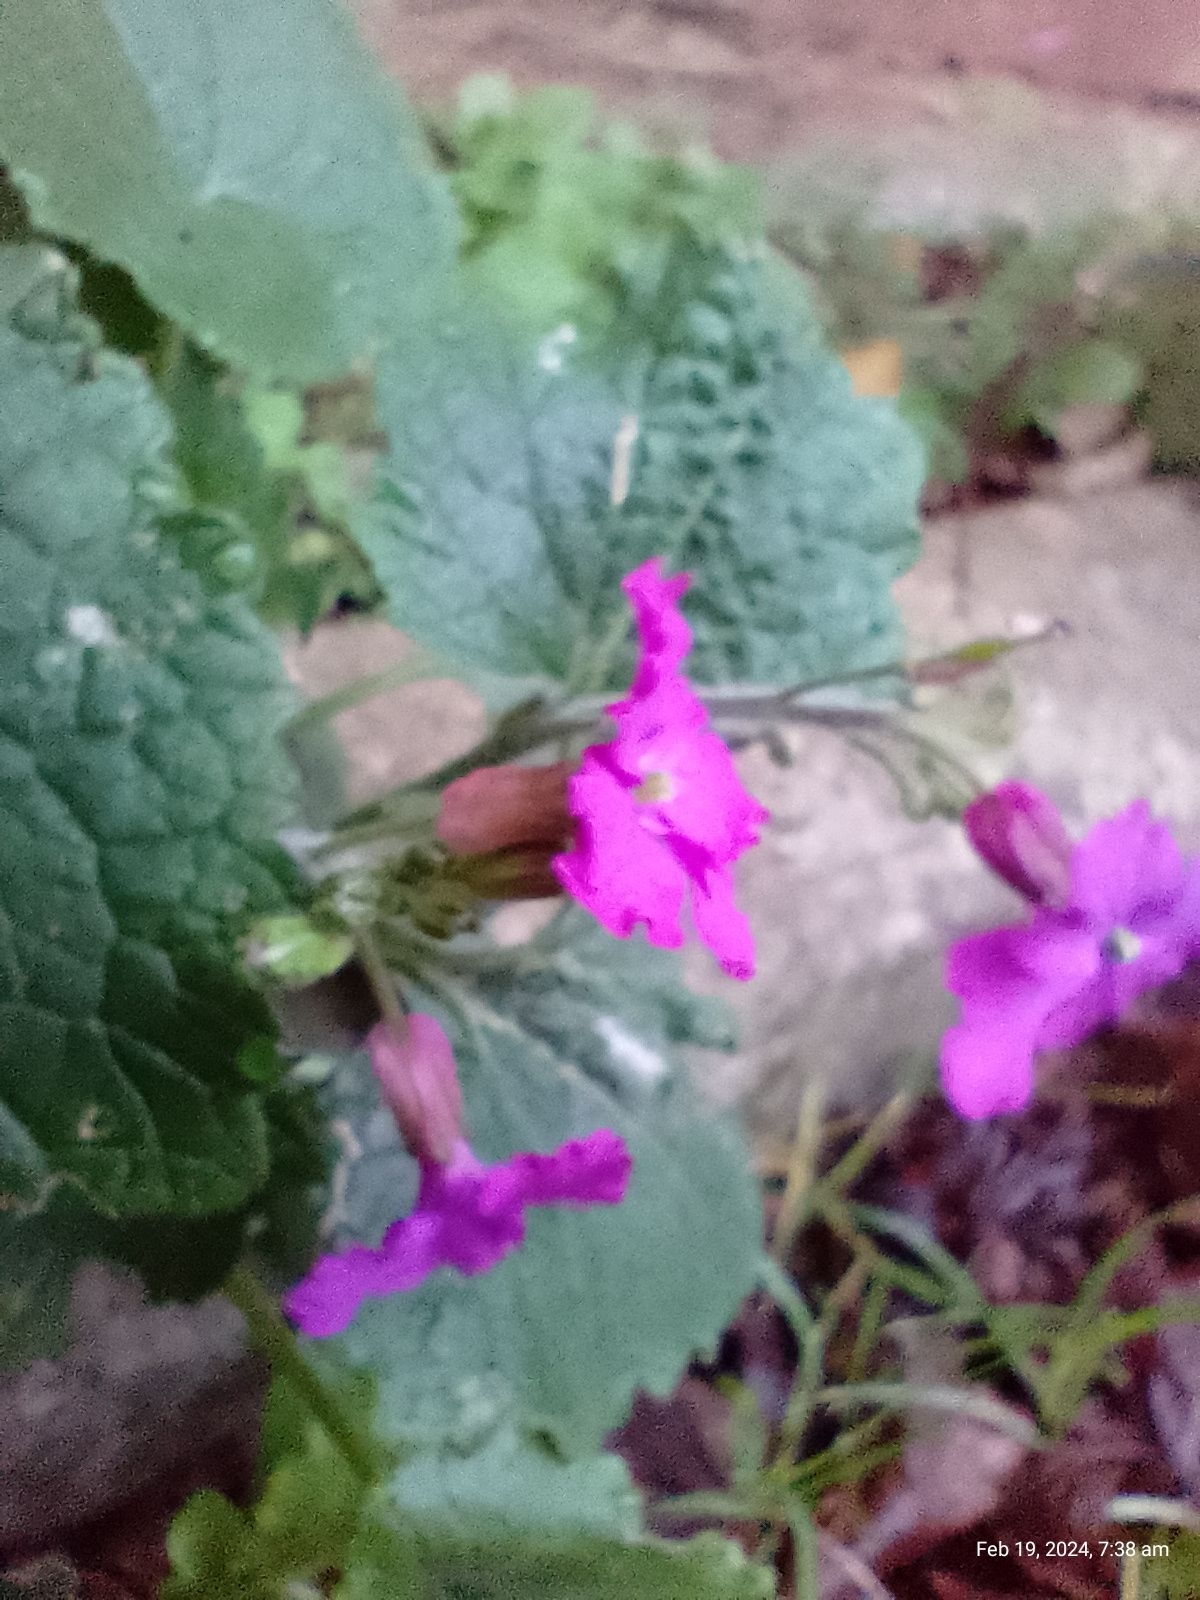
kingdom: Plantae
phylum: Tracheophyta
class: Magnoliopsida
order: Brassicales
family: Brassicaceae
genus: Lunaria
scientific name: Lunaria annua
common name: Honesty
